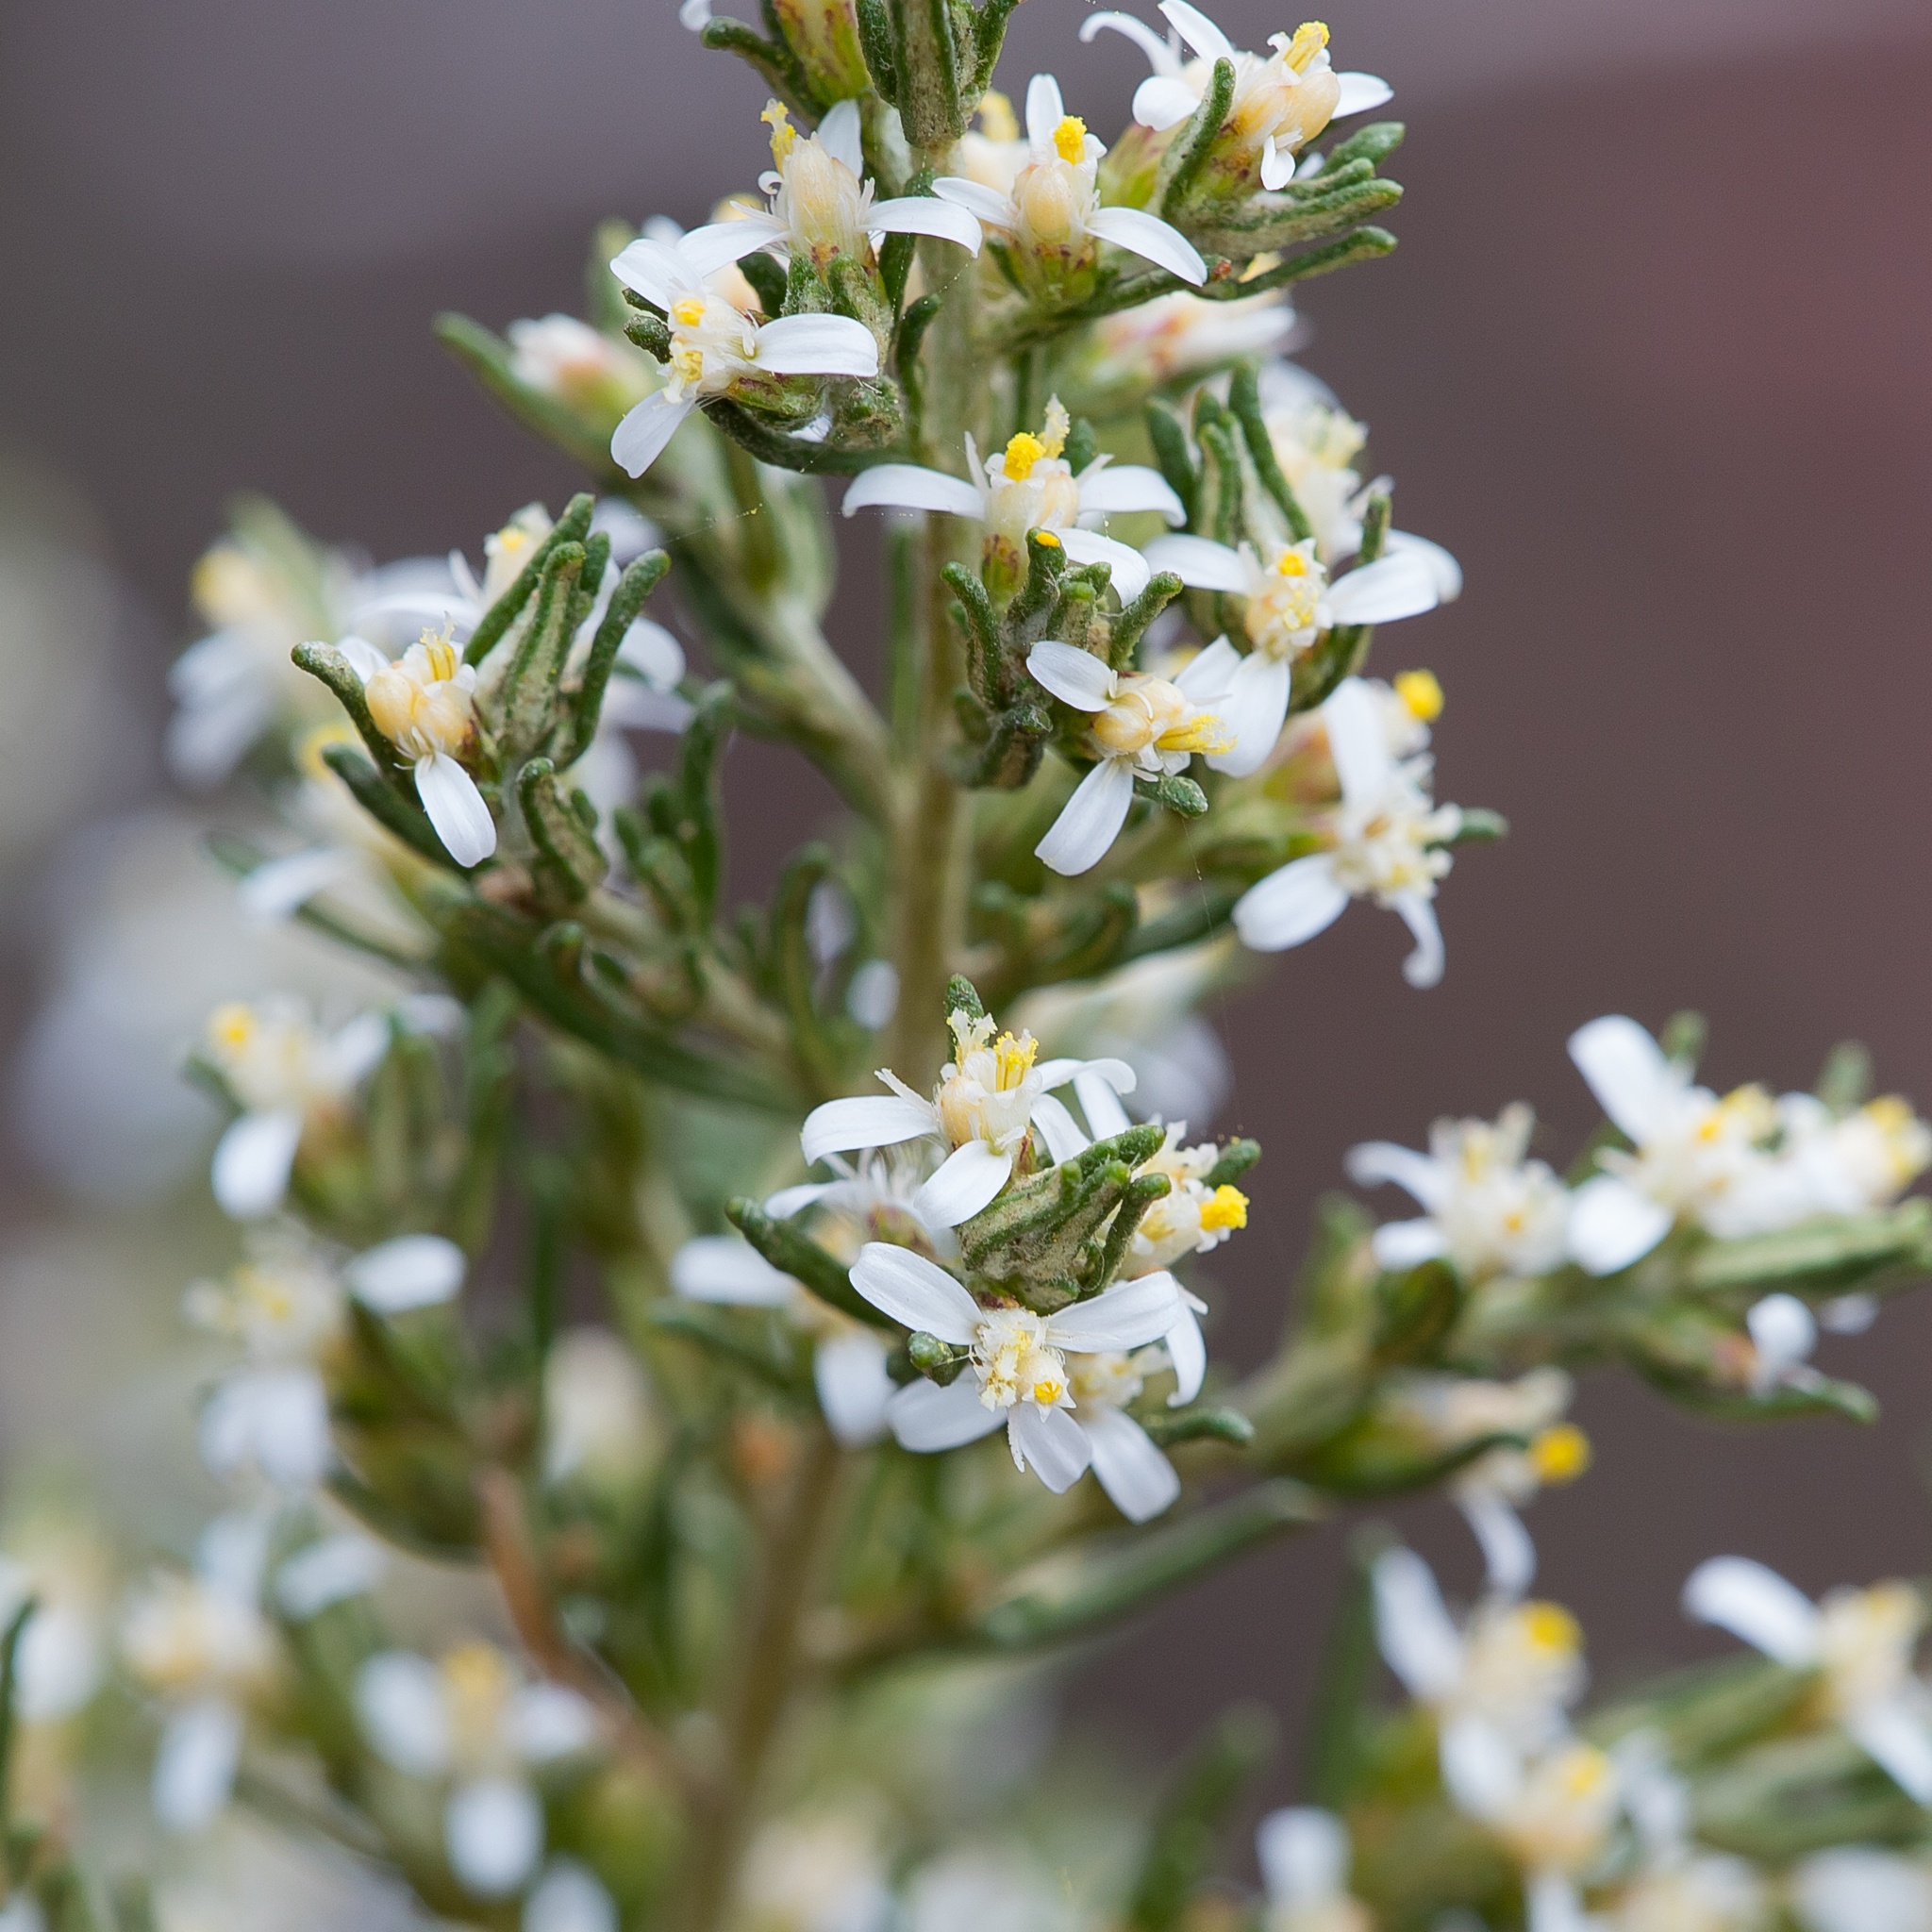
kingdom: Plantae
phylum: Tracheophyta
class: Magnoliopsida
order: Asterales
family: Asteraceae
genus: Olearia
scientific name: Olearia ramulosa
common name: Twiggy daisybush
